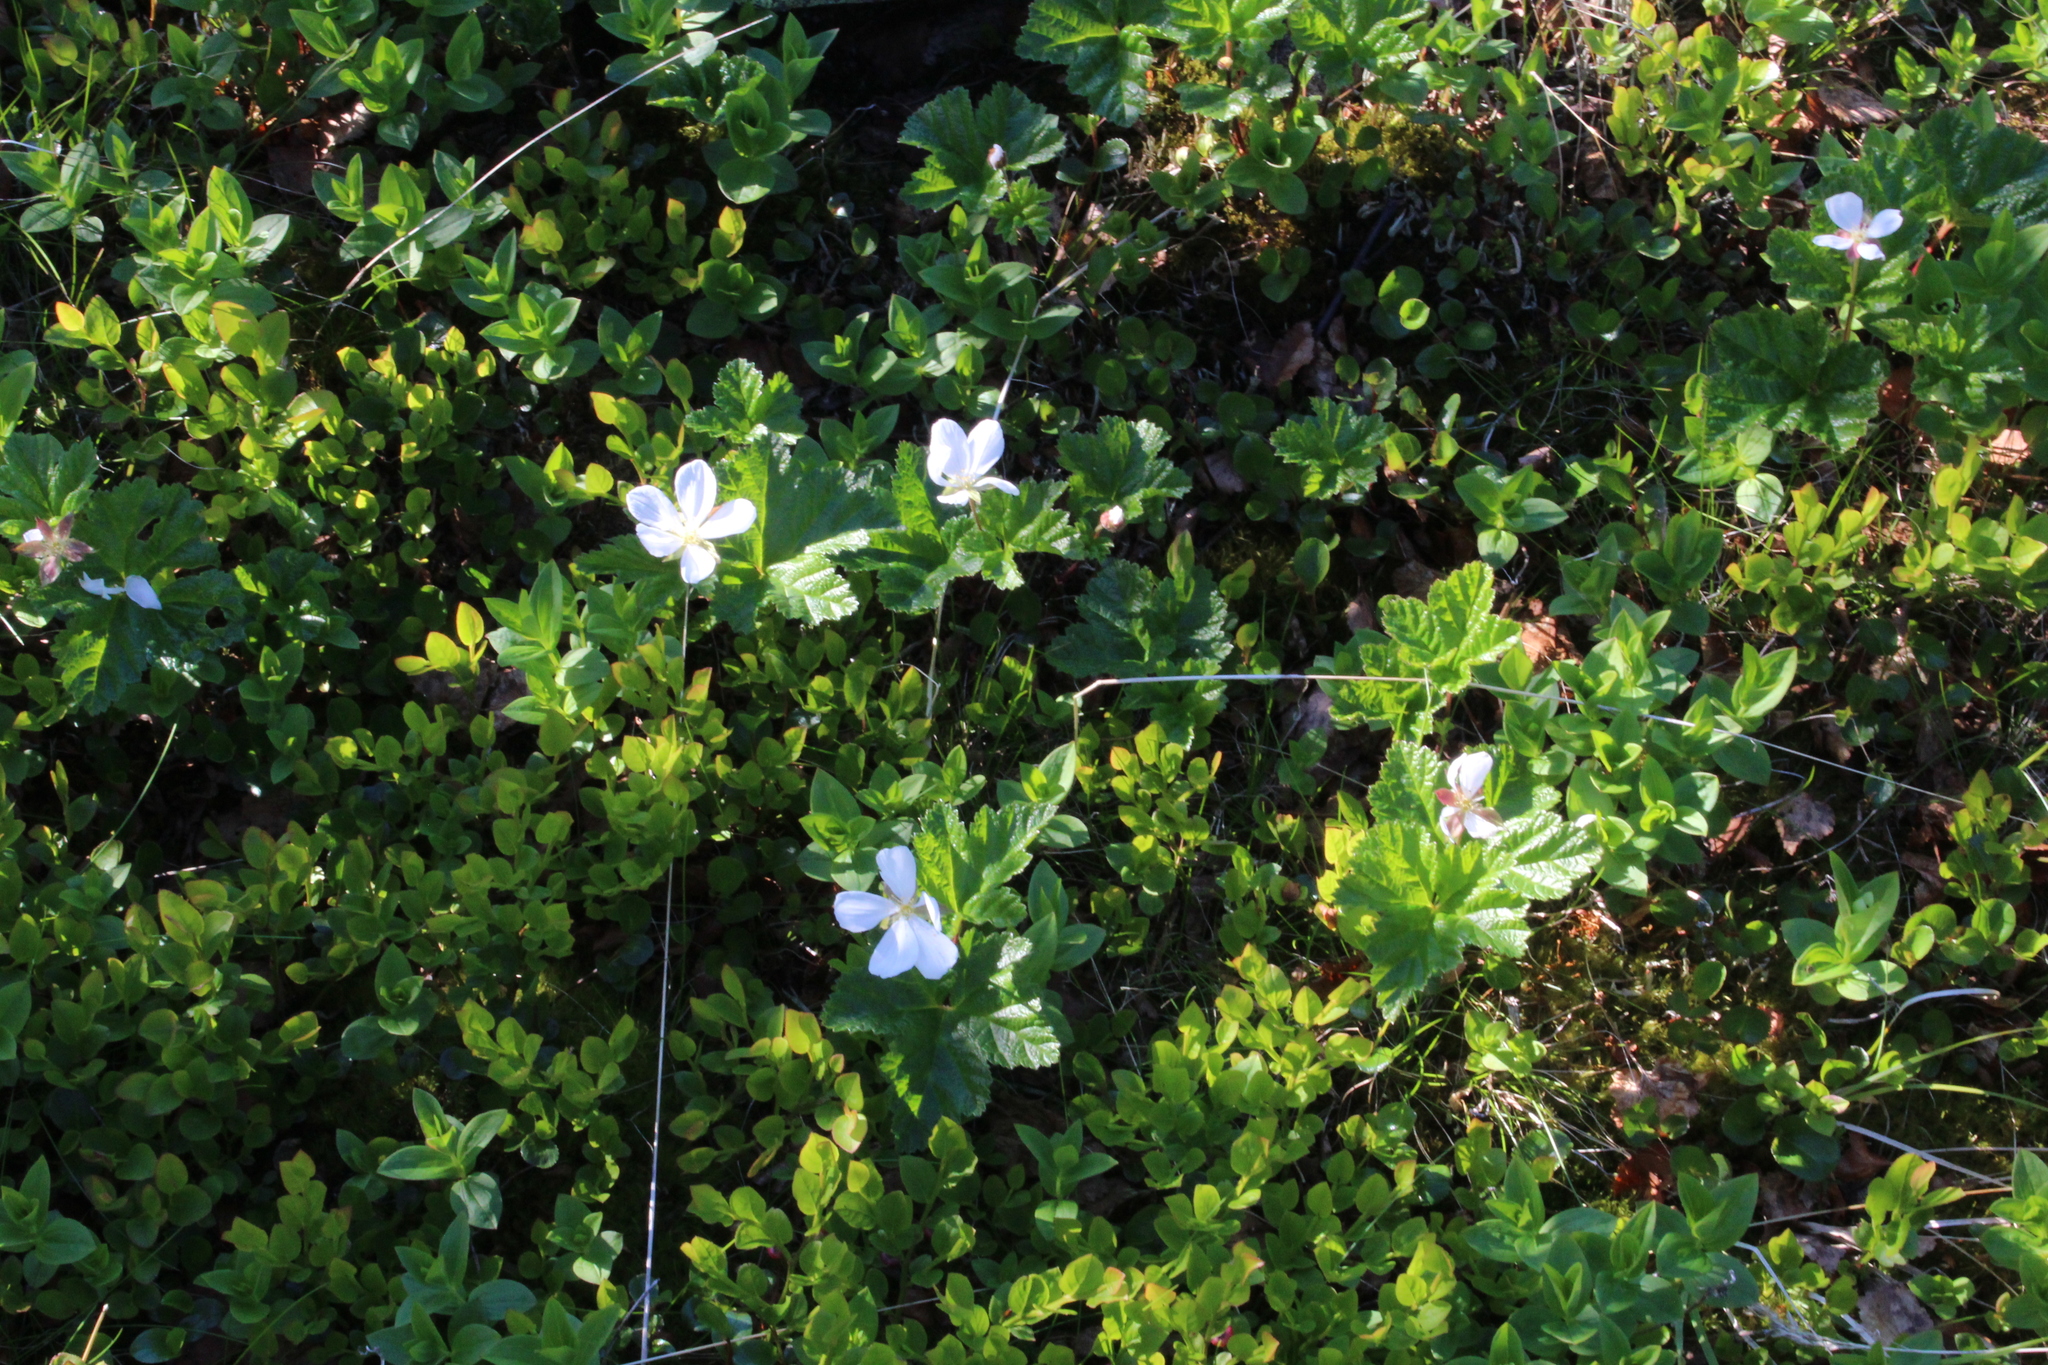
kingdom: Plantae
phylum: Tracheophyta
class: Magnoliopsida
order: Rosales
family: Rosaceae
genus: Rubus
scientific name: Rubus chamaemorus
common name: Cloudberry
